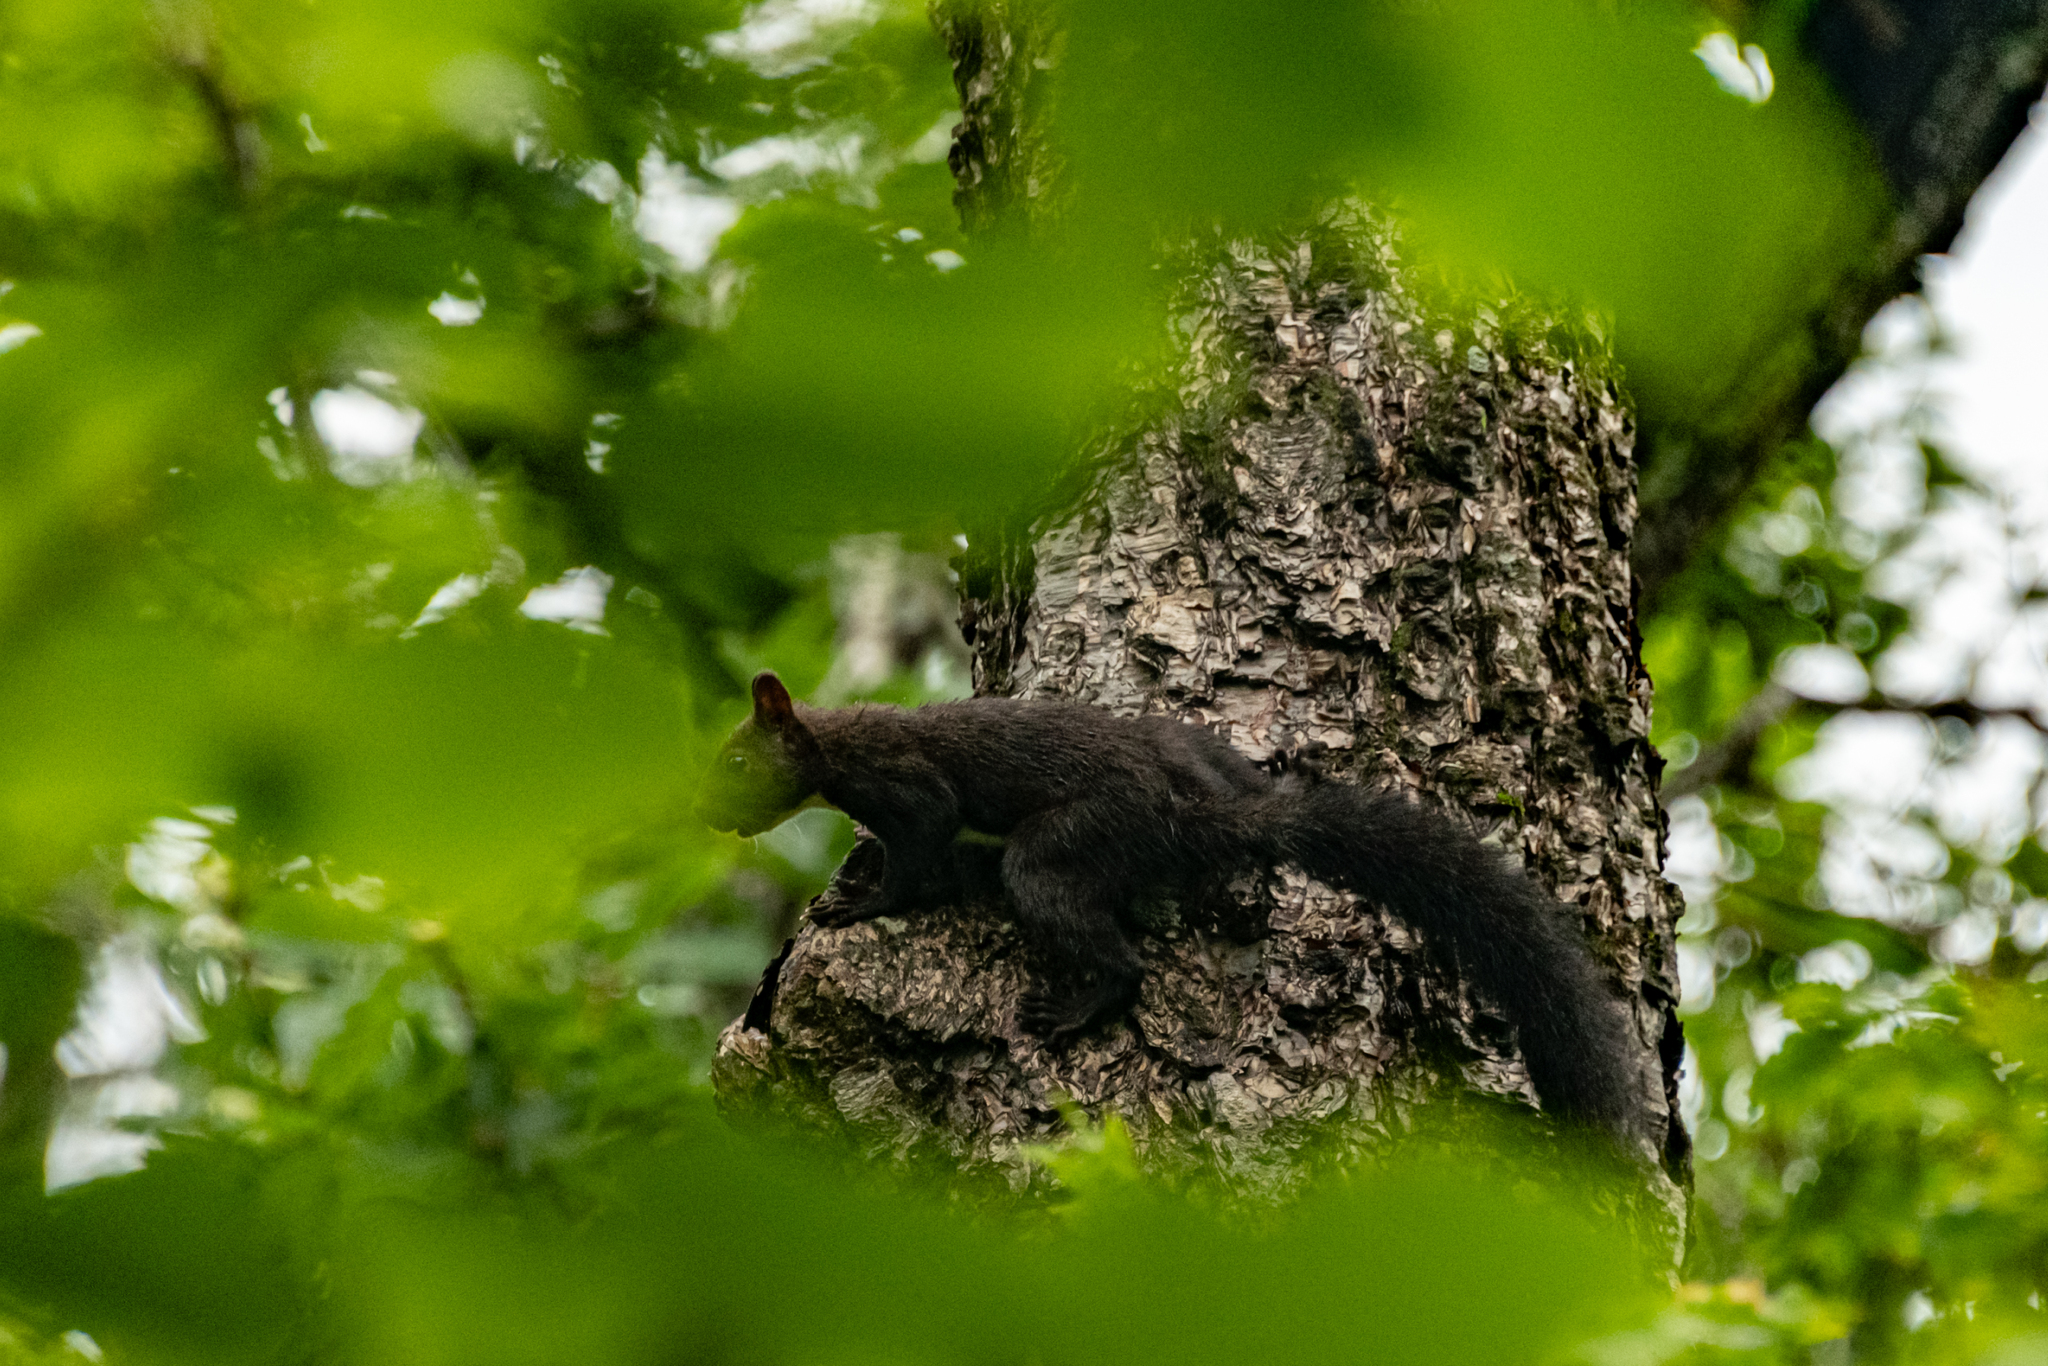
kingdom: Animalia
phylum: Chordata
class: Mammalia
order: Rodentia
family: Sciuridae
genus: Sciurus
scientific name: Sciurus vulgaris
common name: Eurasian red squirrel
